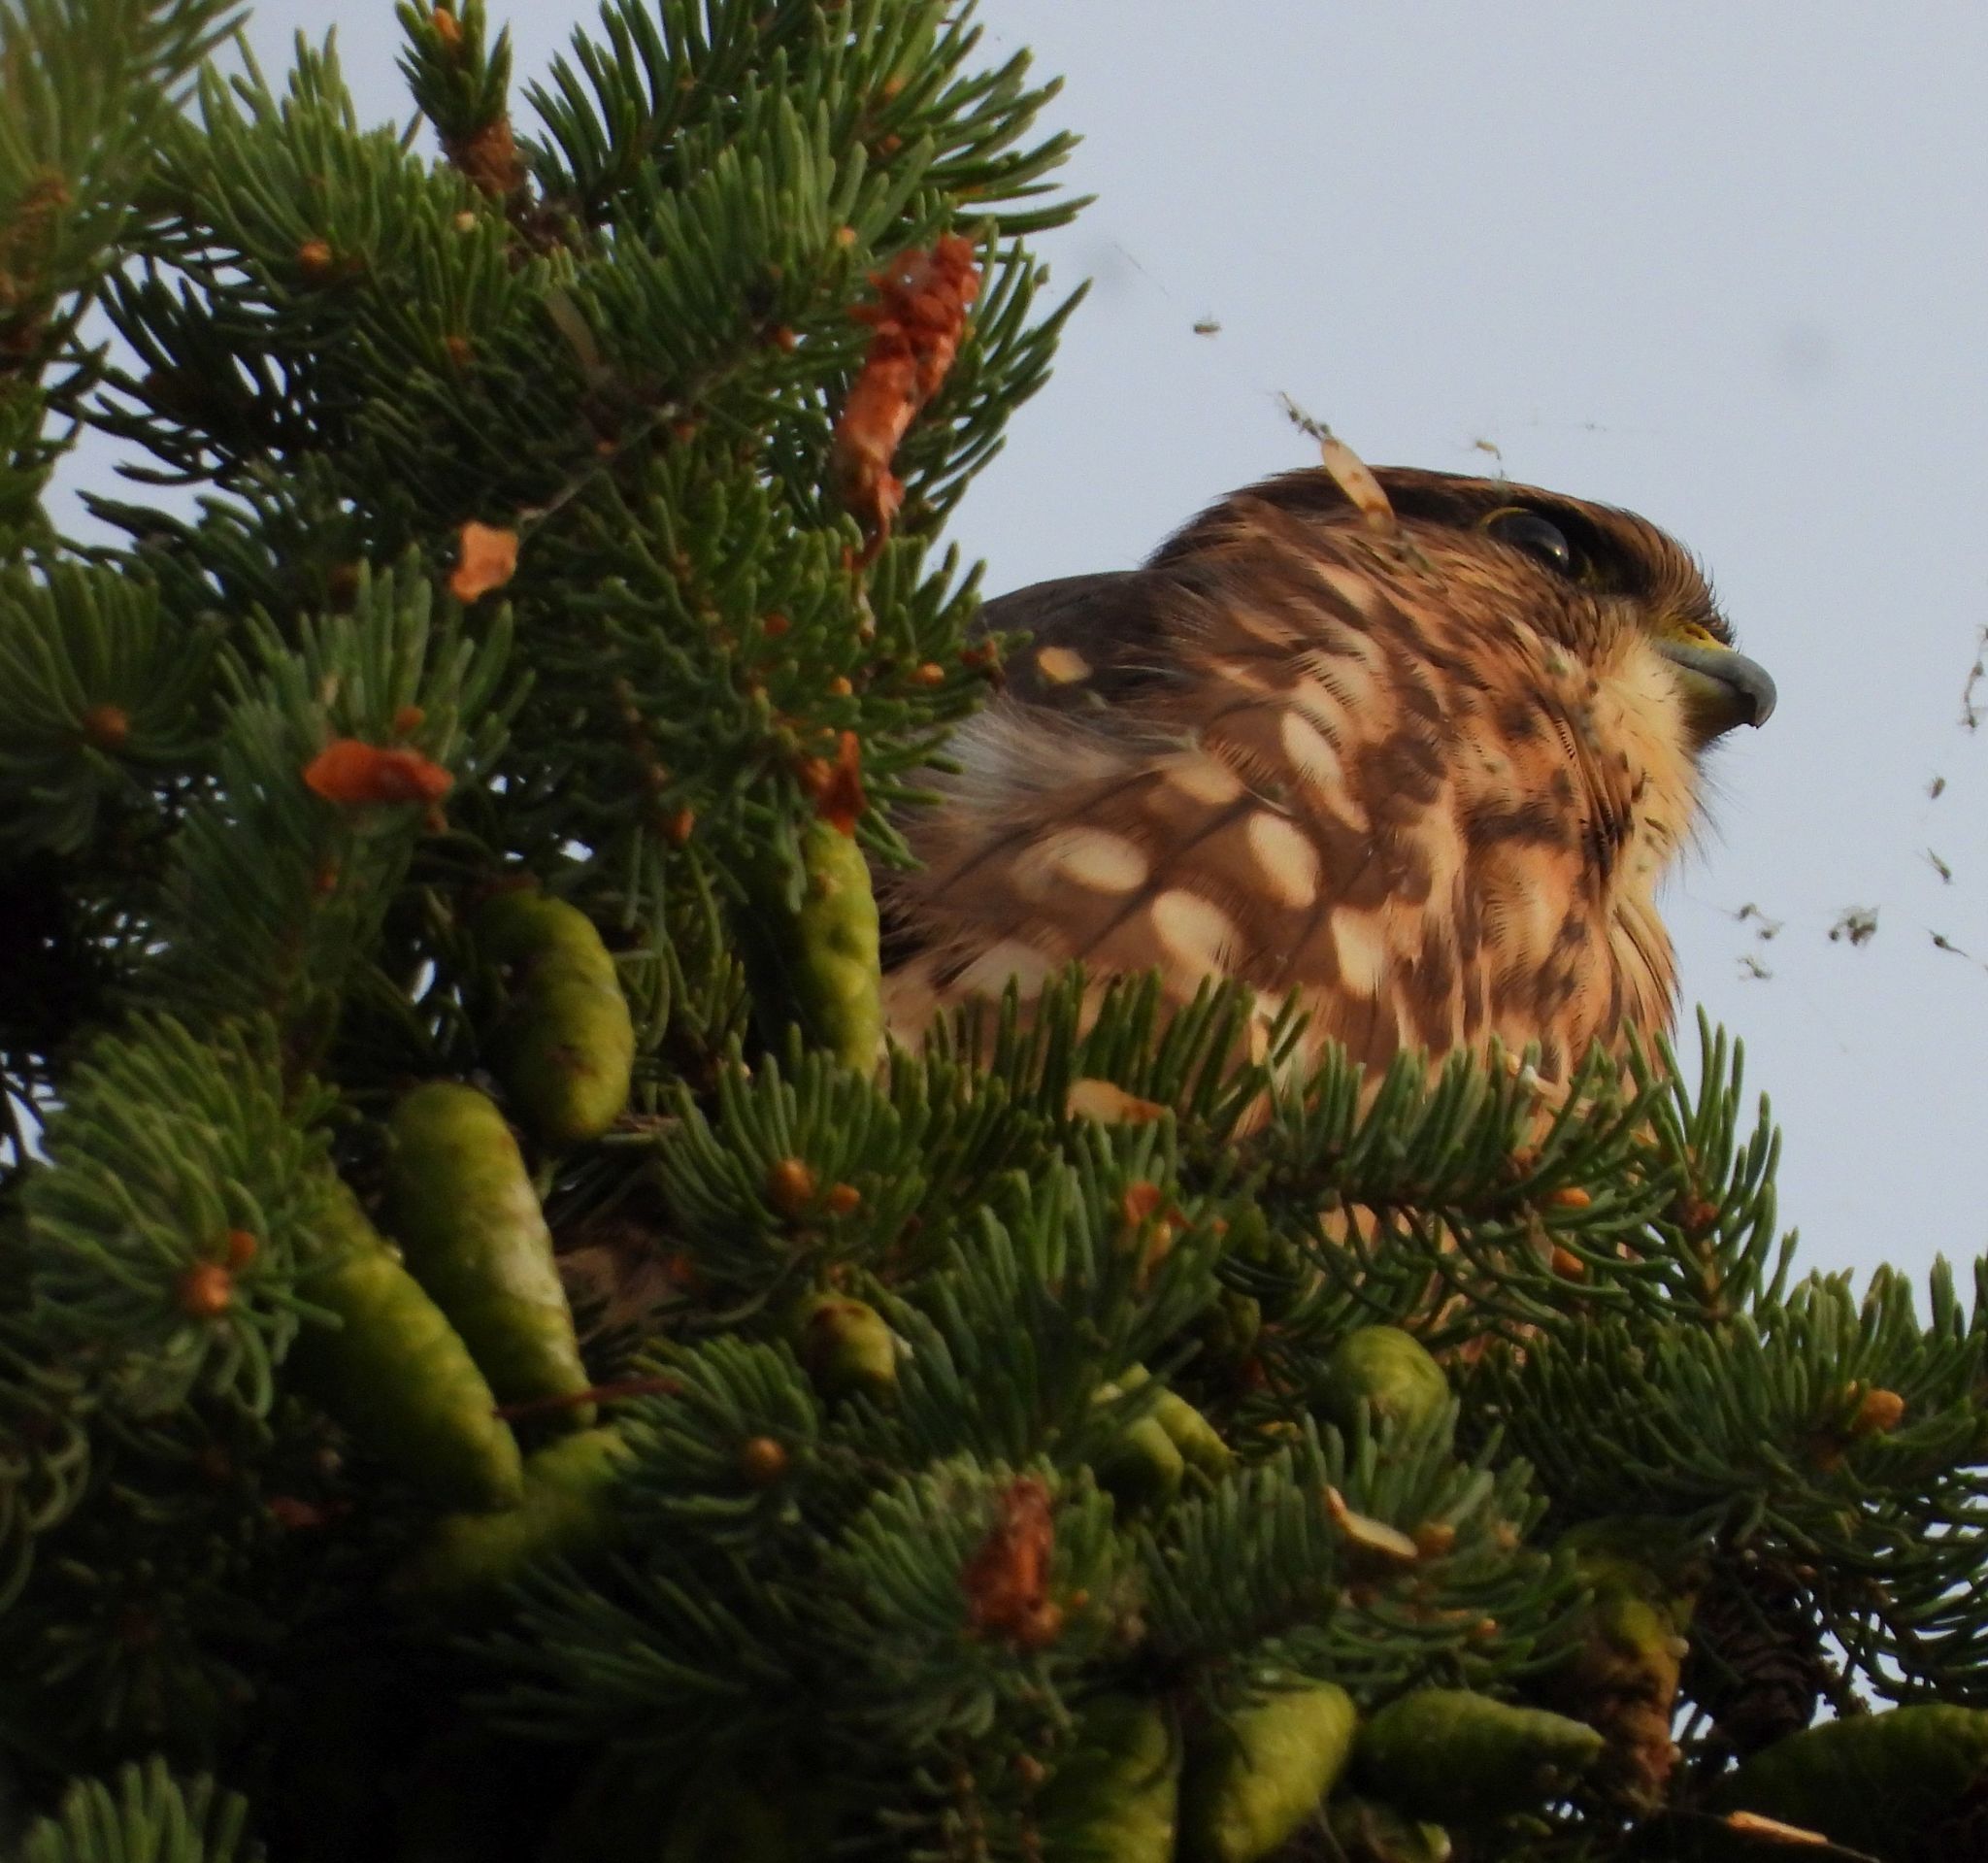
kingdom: Animalia
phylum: Chordata
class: Aves
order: Falconiformes
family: Falconidae
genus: Falco
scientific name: Falco columbarius
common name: Merlin
